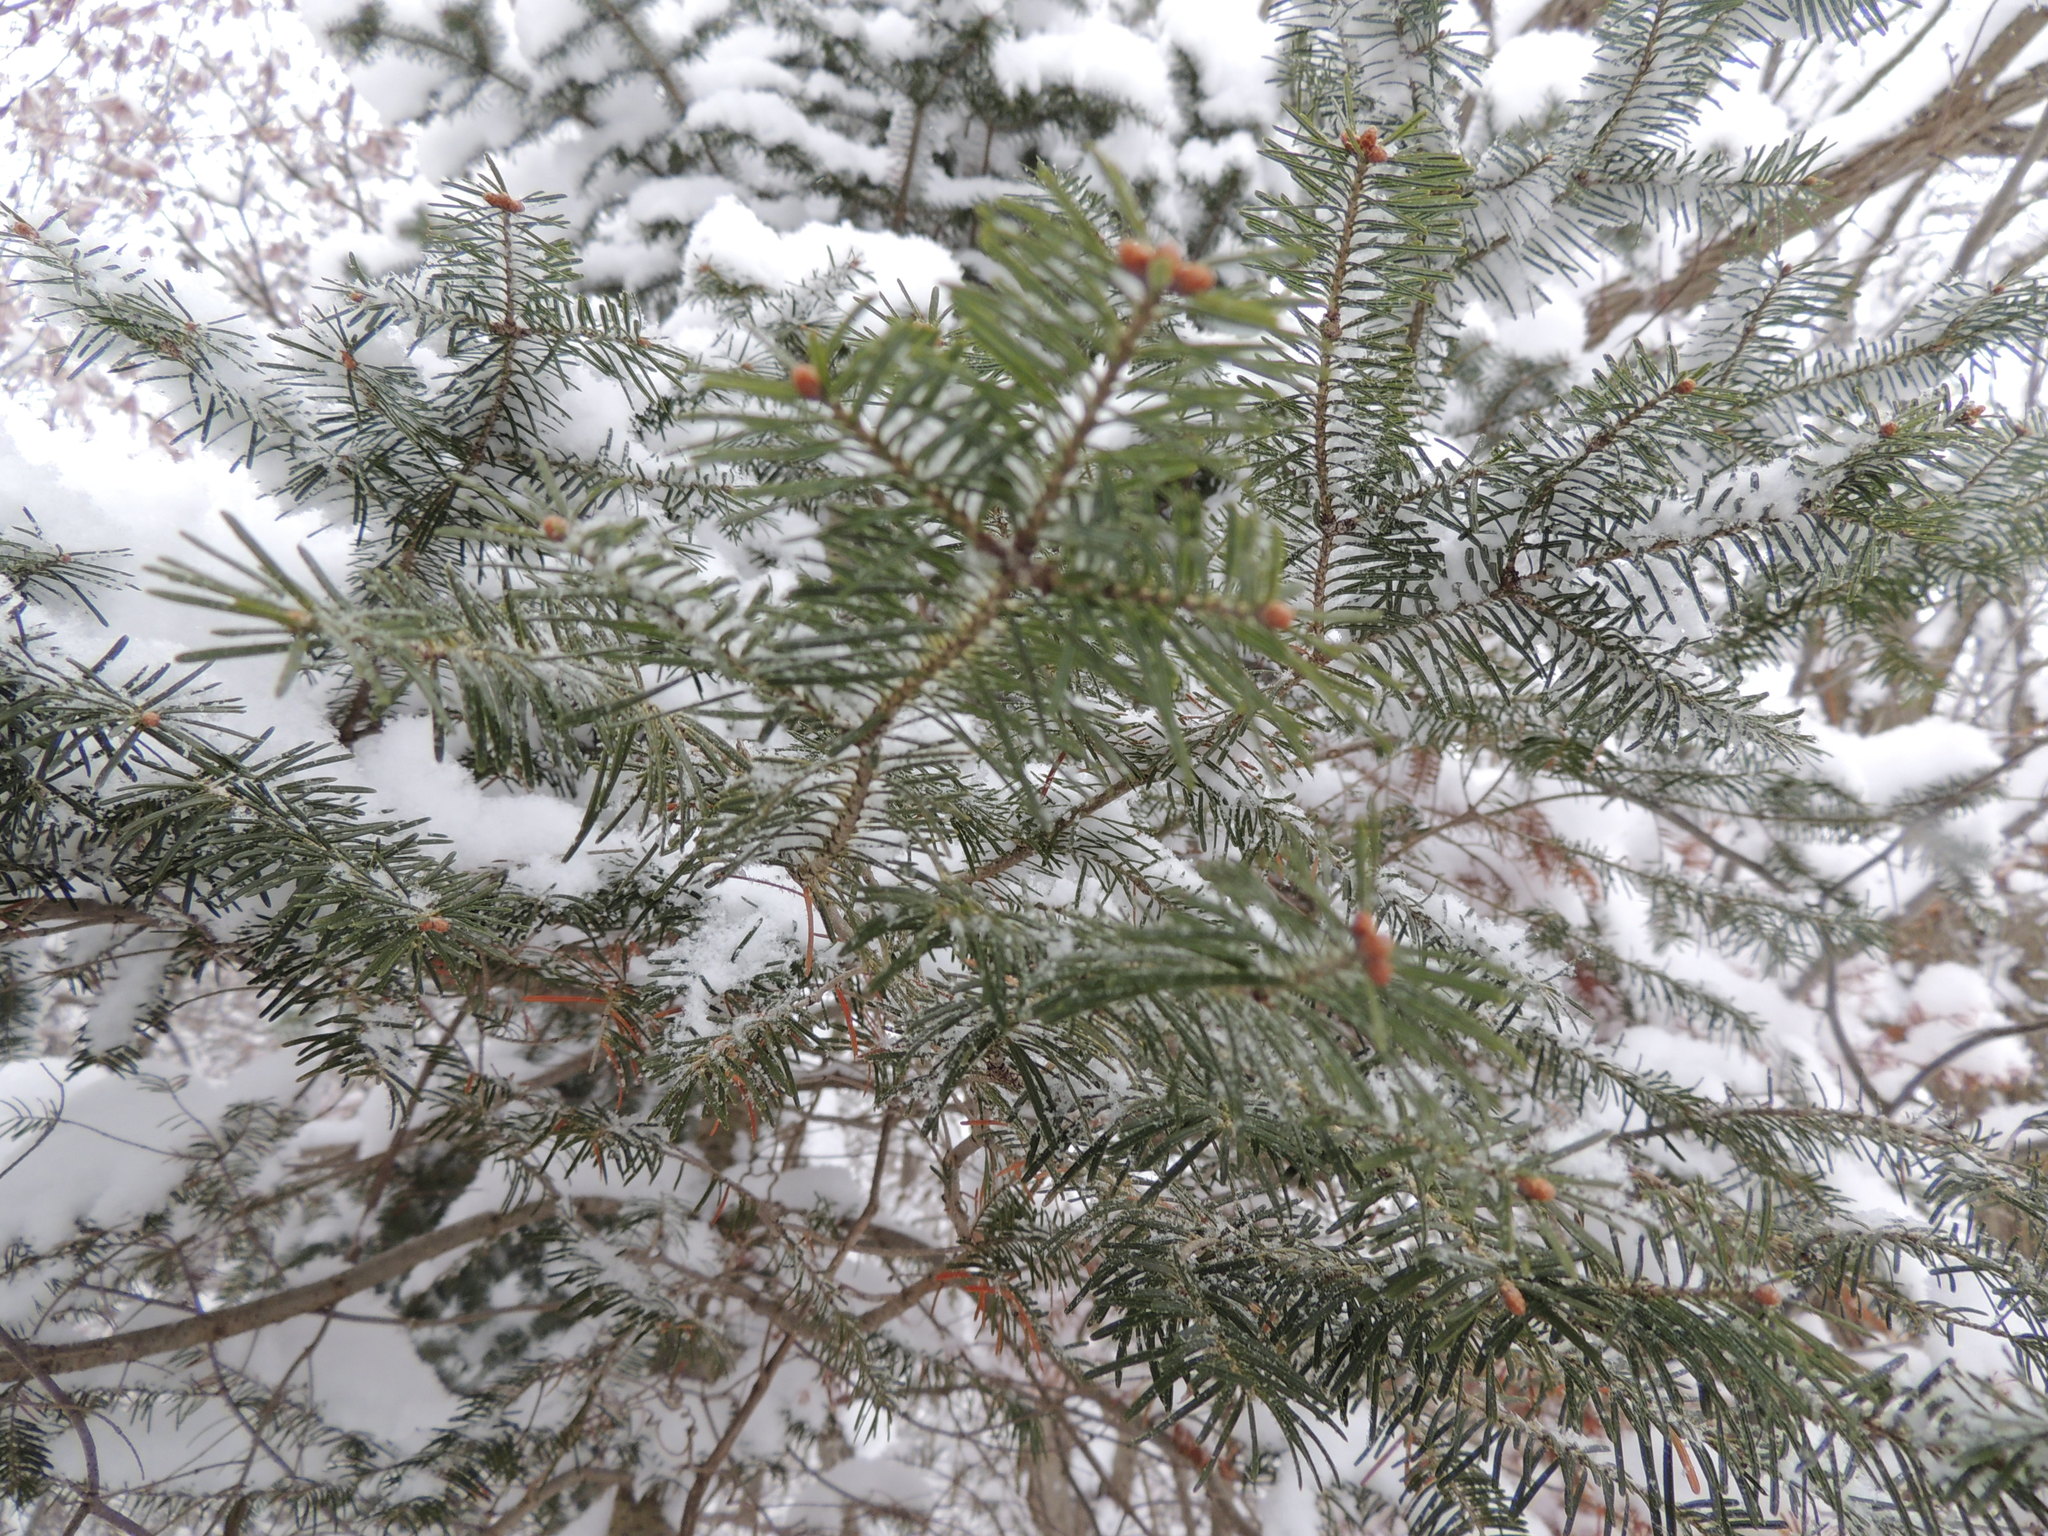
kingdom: Plantae
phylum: Tracheophyta
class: Pinopsida
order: Pinales
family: Pinaceae
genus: Abies
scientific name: Abies balsamea
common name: Balsam fir
